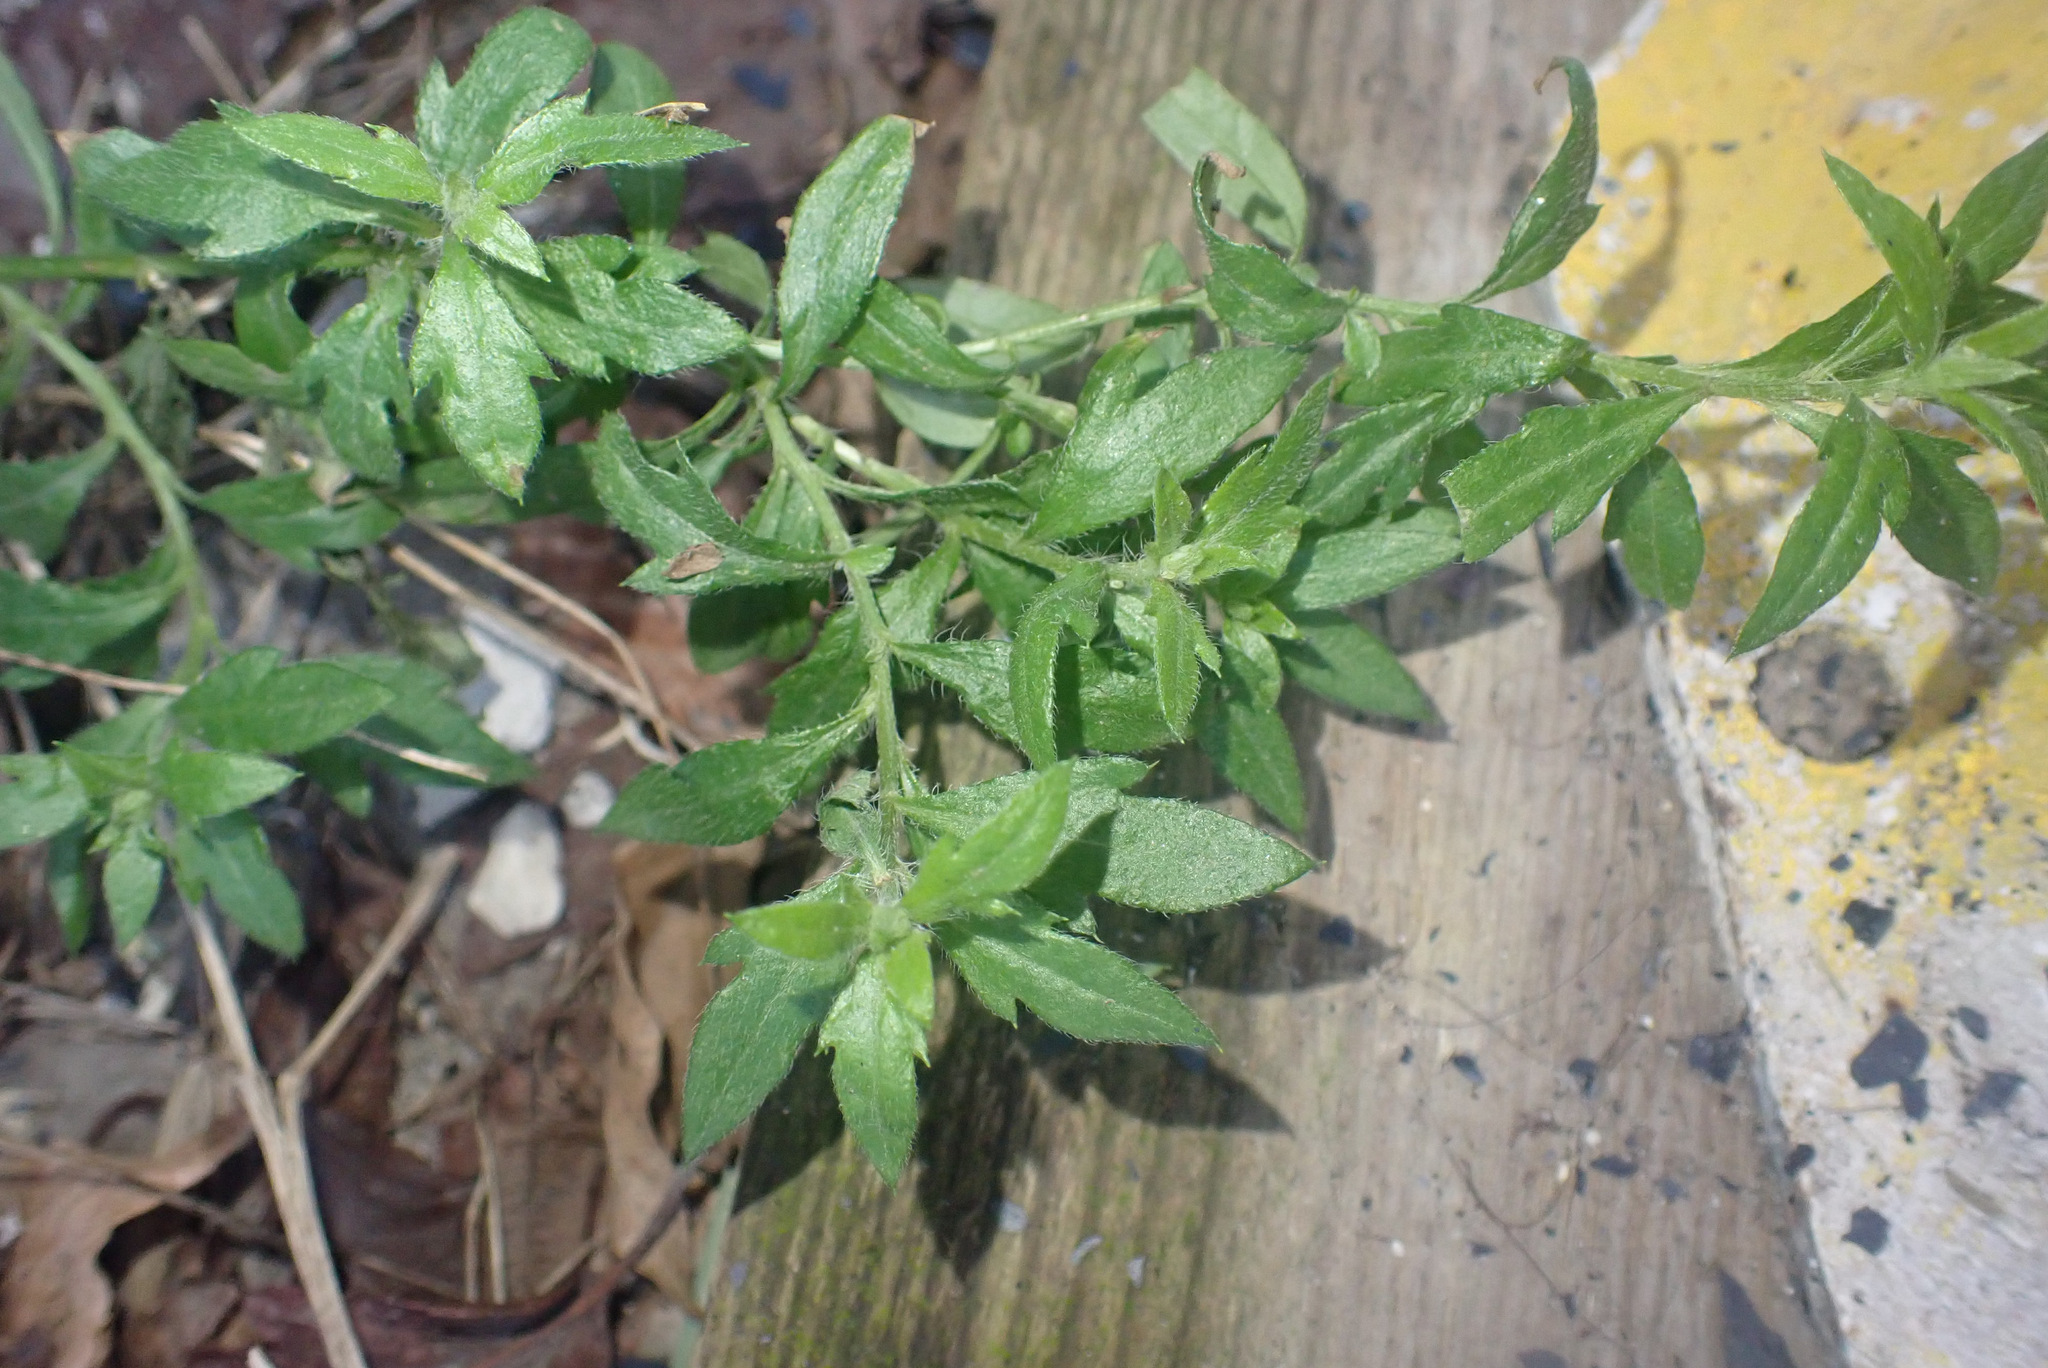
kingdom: Plantae
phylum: Tracheophyta
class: Magnoliopsida
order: Asterales
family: Asteraceae
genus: Erigeron
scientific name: Erigeron karvinskianus
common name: Mexican fleabane
